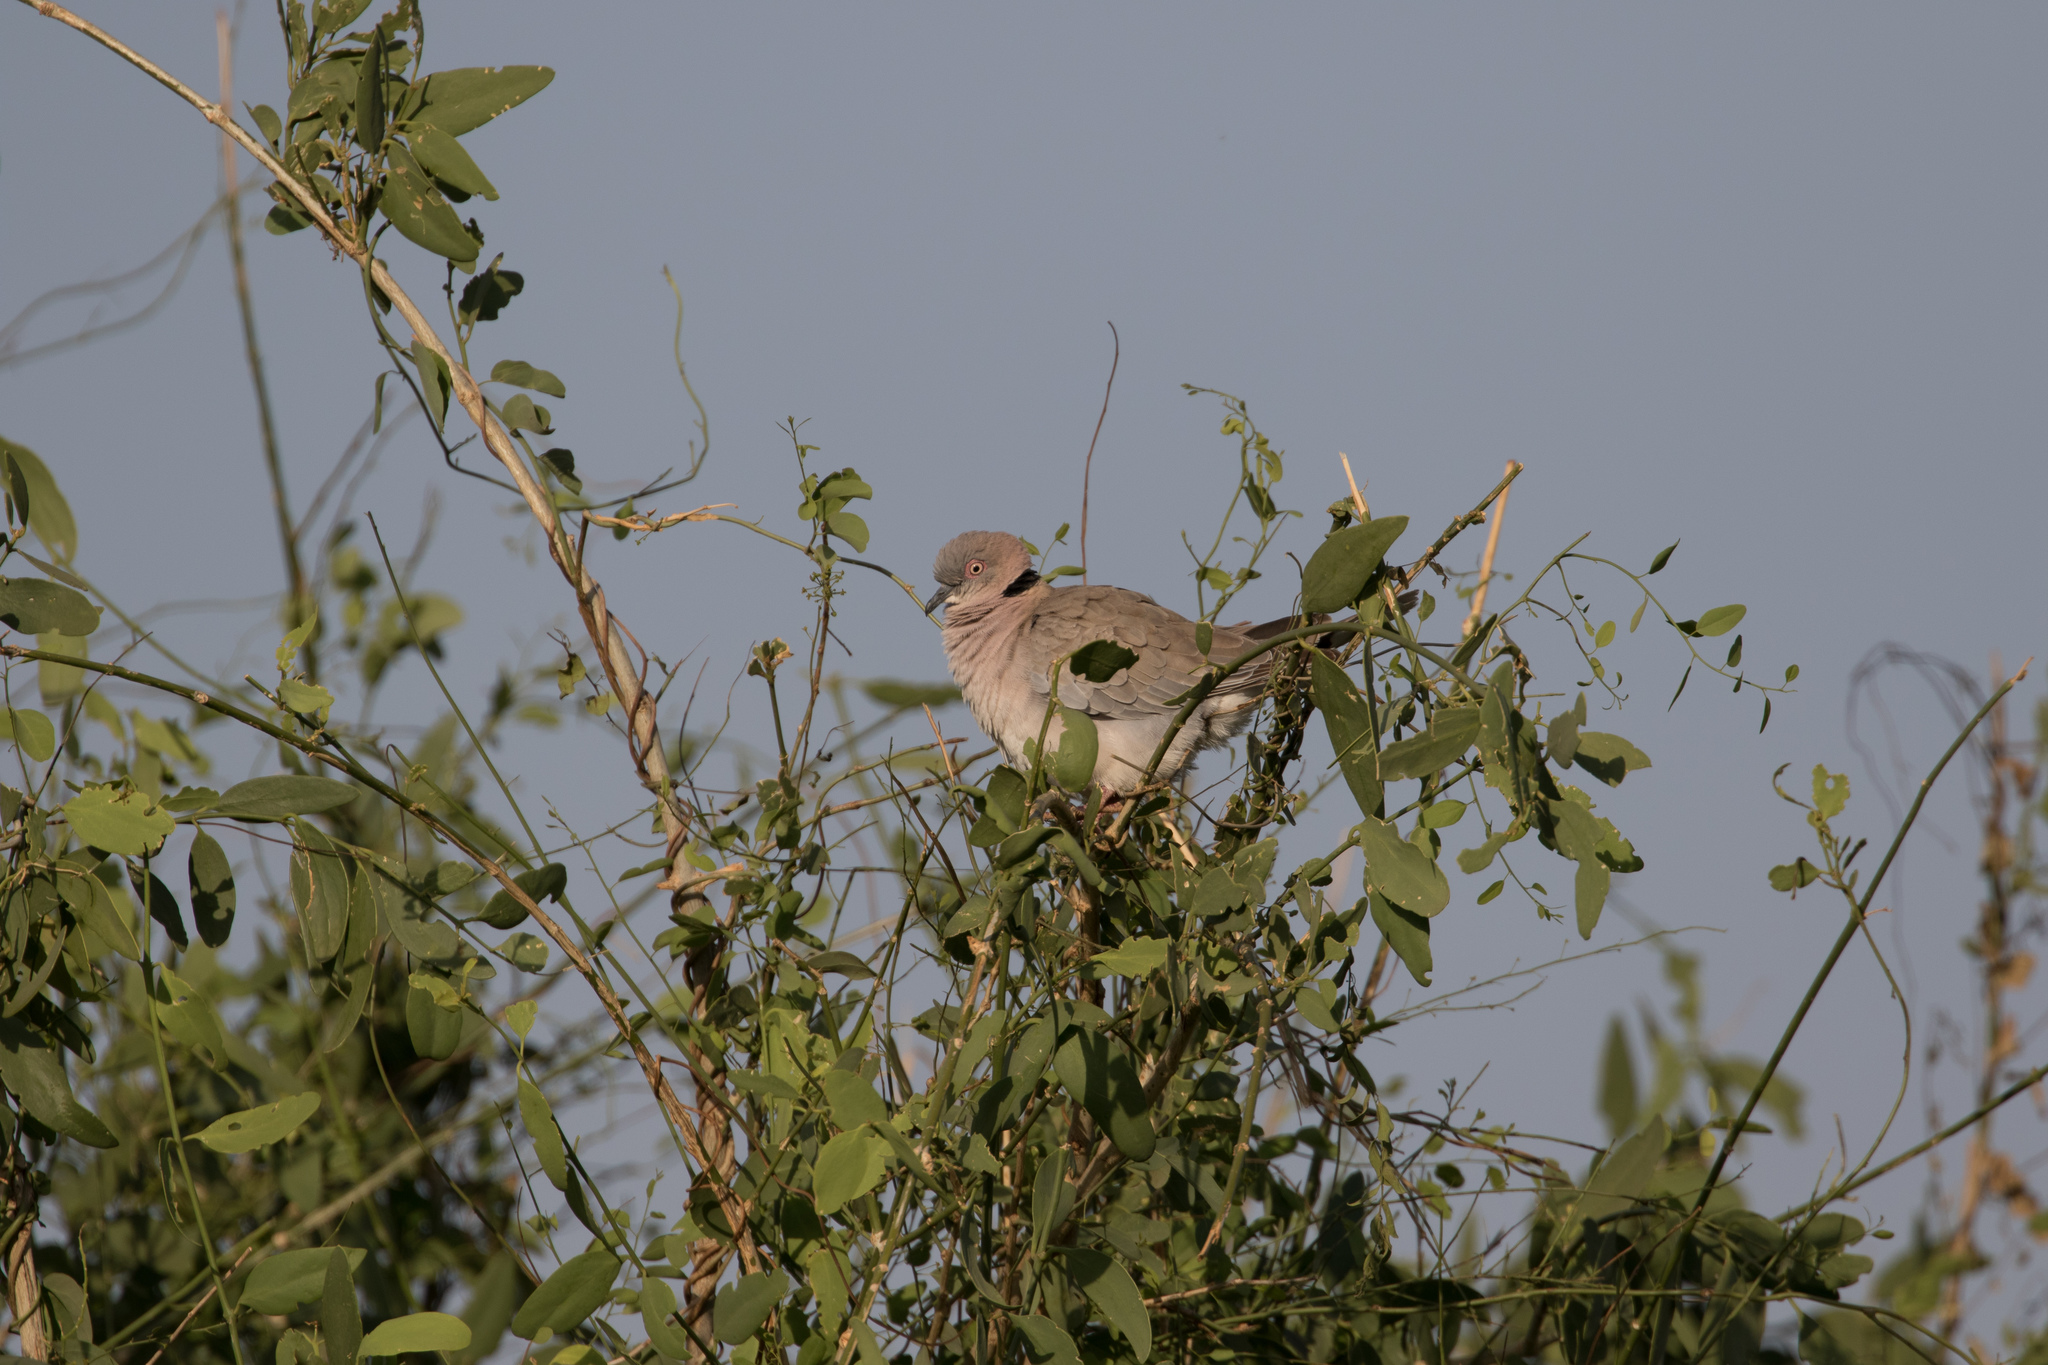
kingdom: Animalia
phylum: Chordata
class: Aves
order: Columbiformes
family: Columbidae
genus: Streptopelia
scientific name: Streptopelia decipiens
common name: Mourning collared dove
